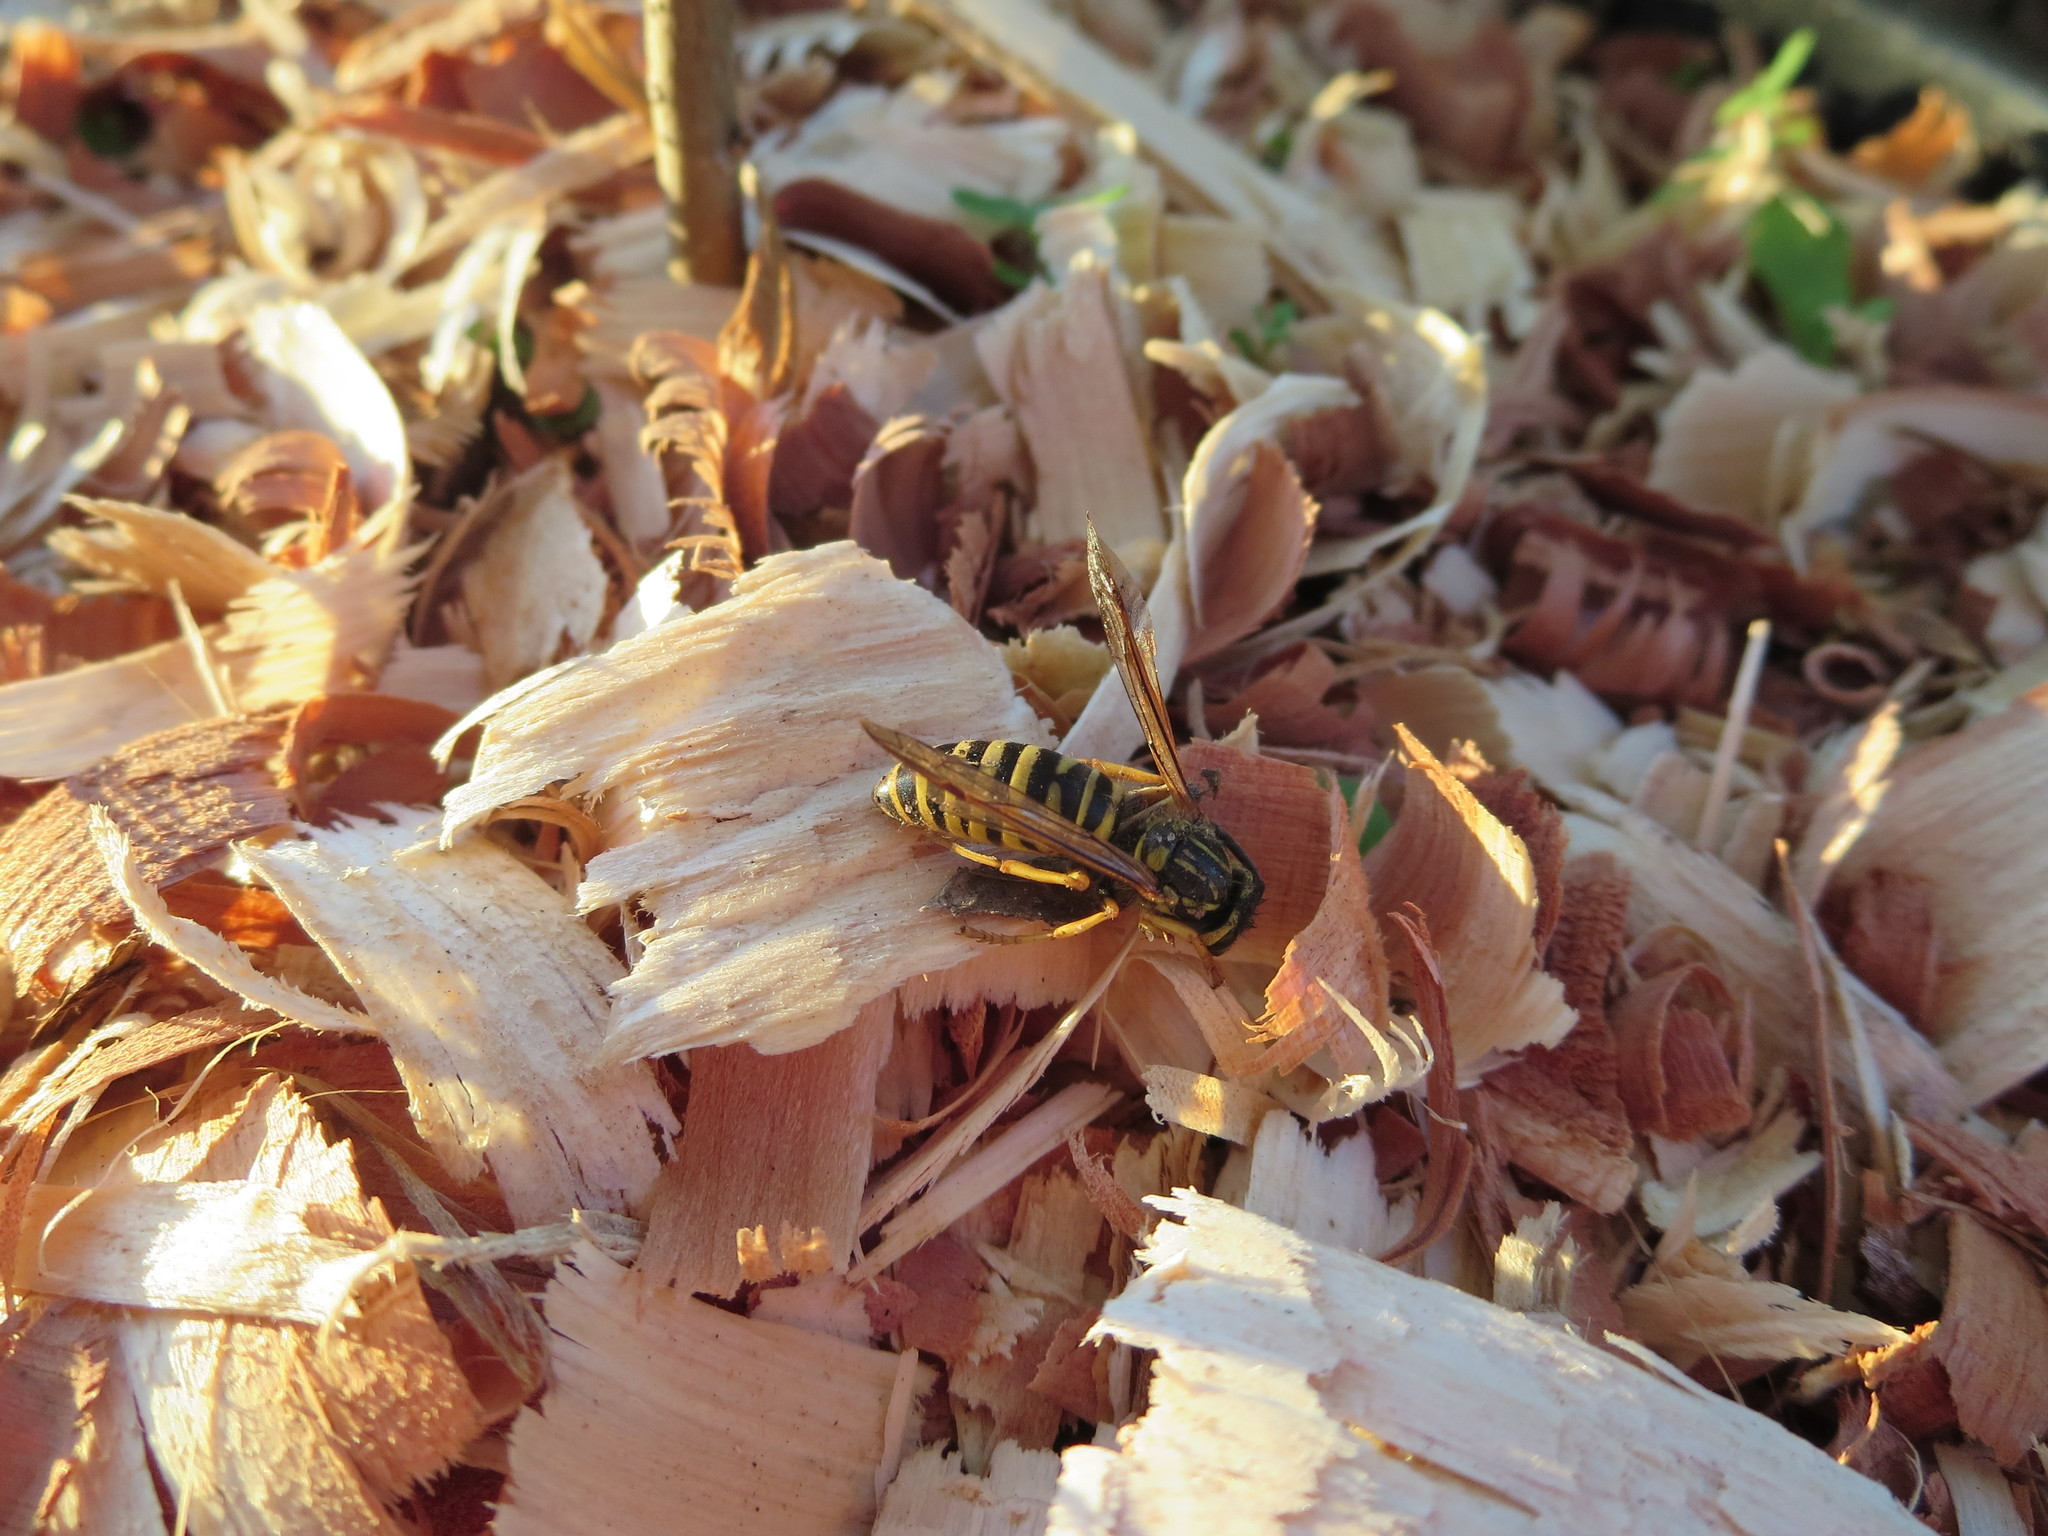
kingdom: Animalia
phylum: Arthropoda
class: Insecta
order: Hymenoptera
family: Vespidae
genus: Vespula
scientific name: Vespula squamosa
